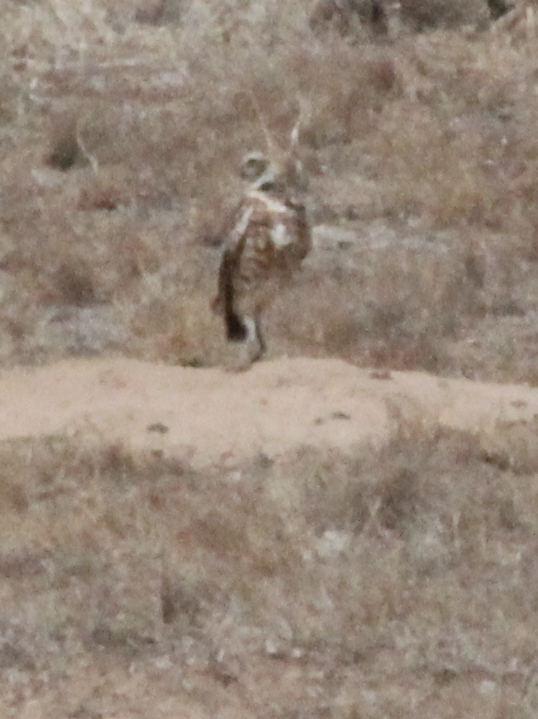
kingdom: Animalia
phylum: Chordata
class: Aves
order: Strigiformes
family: Strigidae
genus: Athene
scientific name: Athene cunicularia
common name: Burrowing owl
